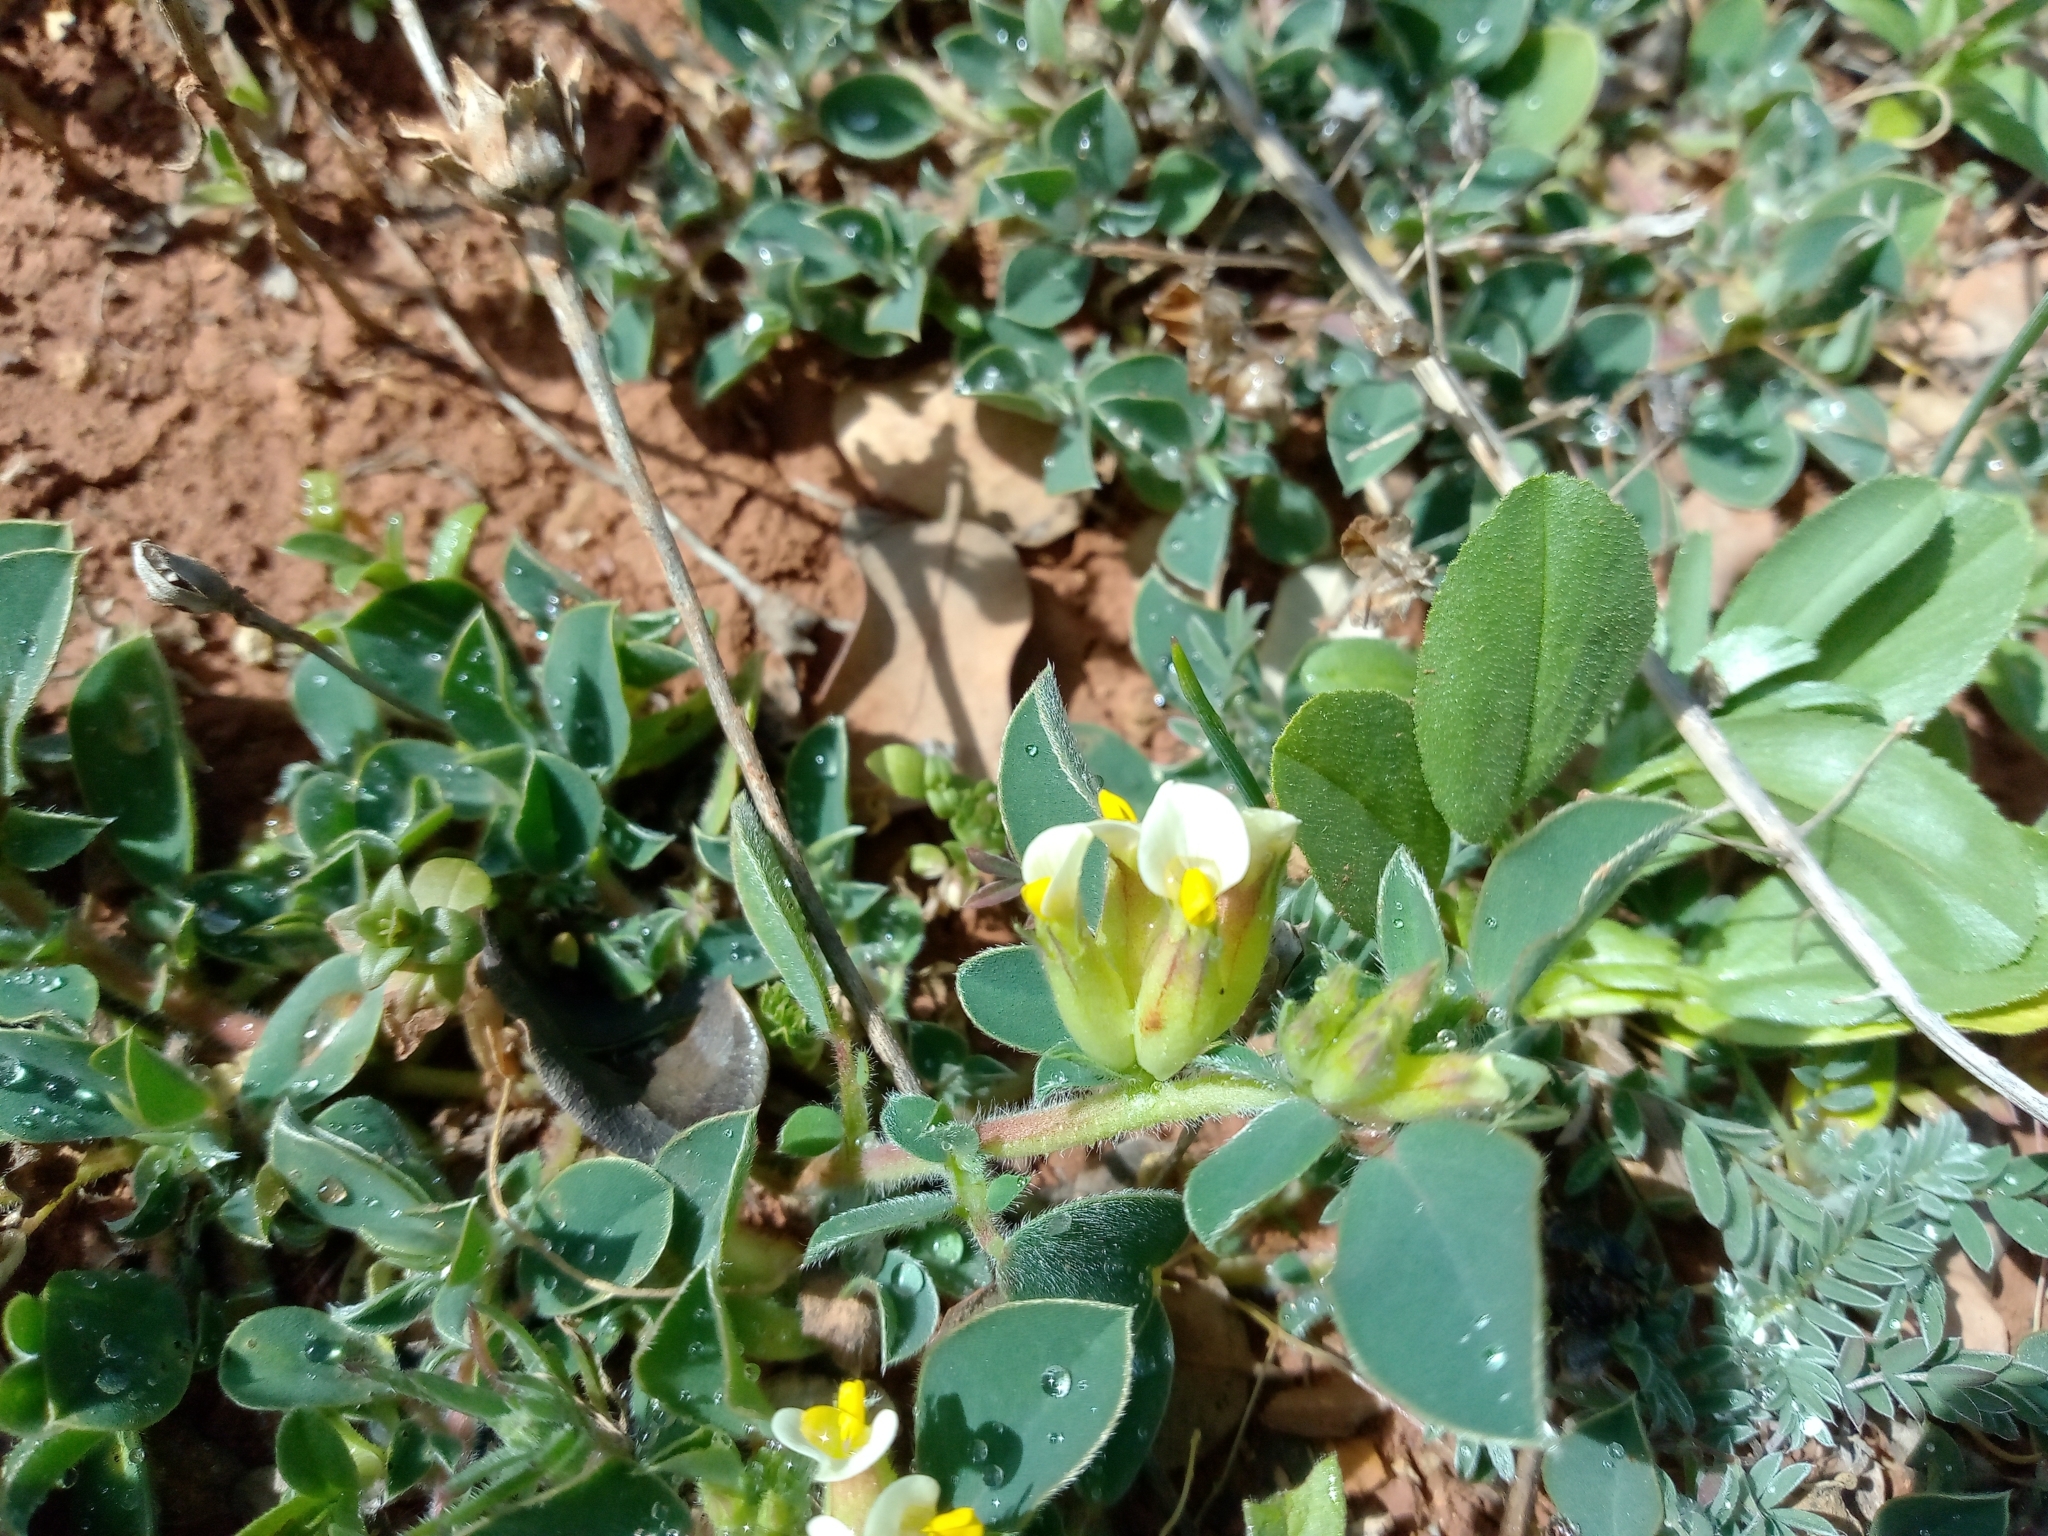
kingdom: Plantae
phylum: Tracheophyta
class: Magnoliopsida
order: Fabales
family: Fabaceae
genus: Tripodion
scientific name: Tripodion tetraphyllum
